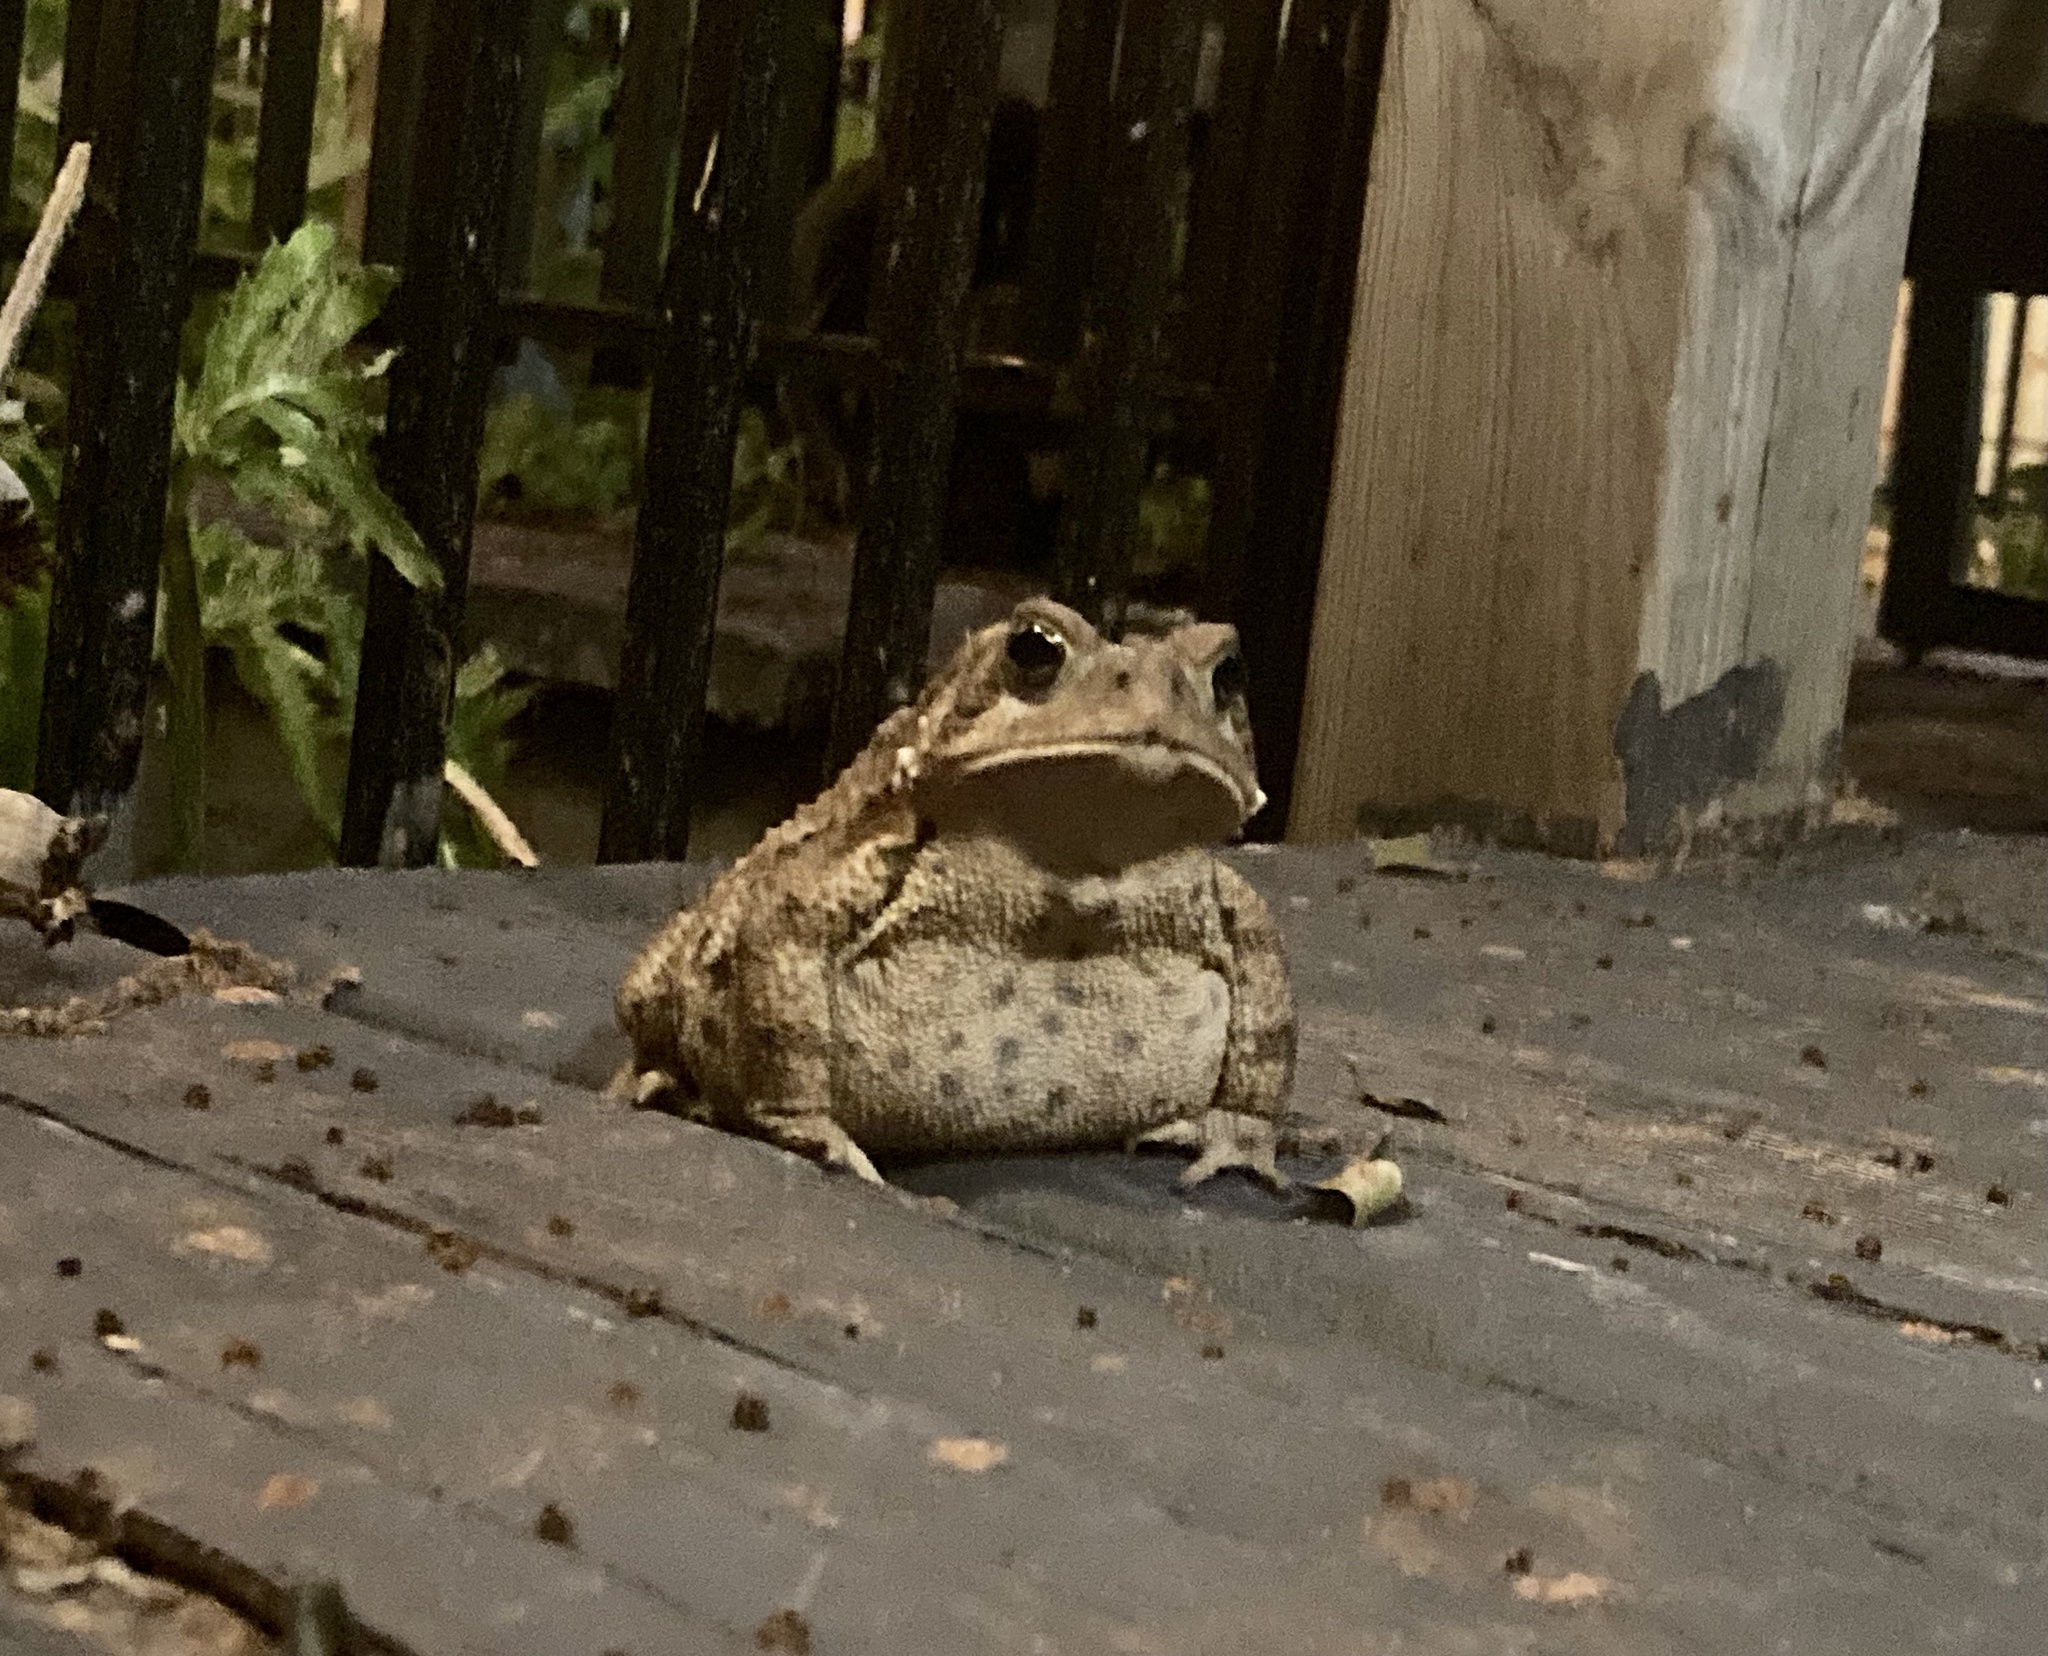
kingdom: Animalia
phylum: Chordata
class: Amphibia
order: Anura
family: Bufonidae
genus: Anaxyrus
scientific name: Anaxyrus americanus
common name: American toad
